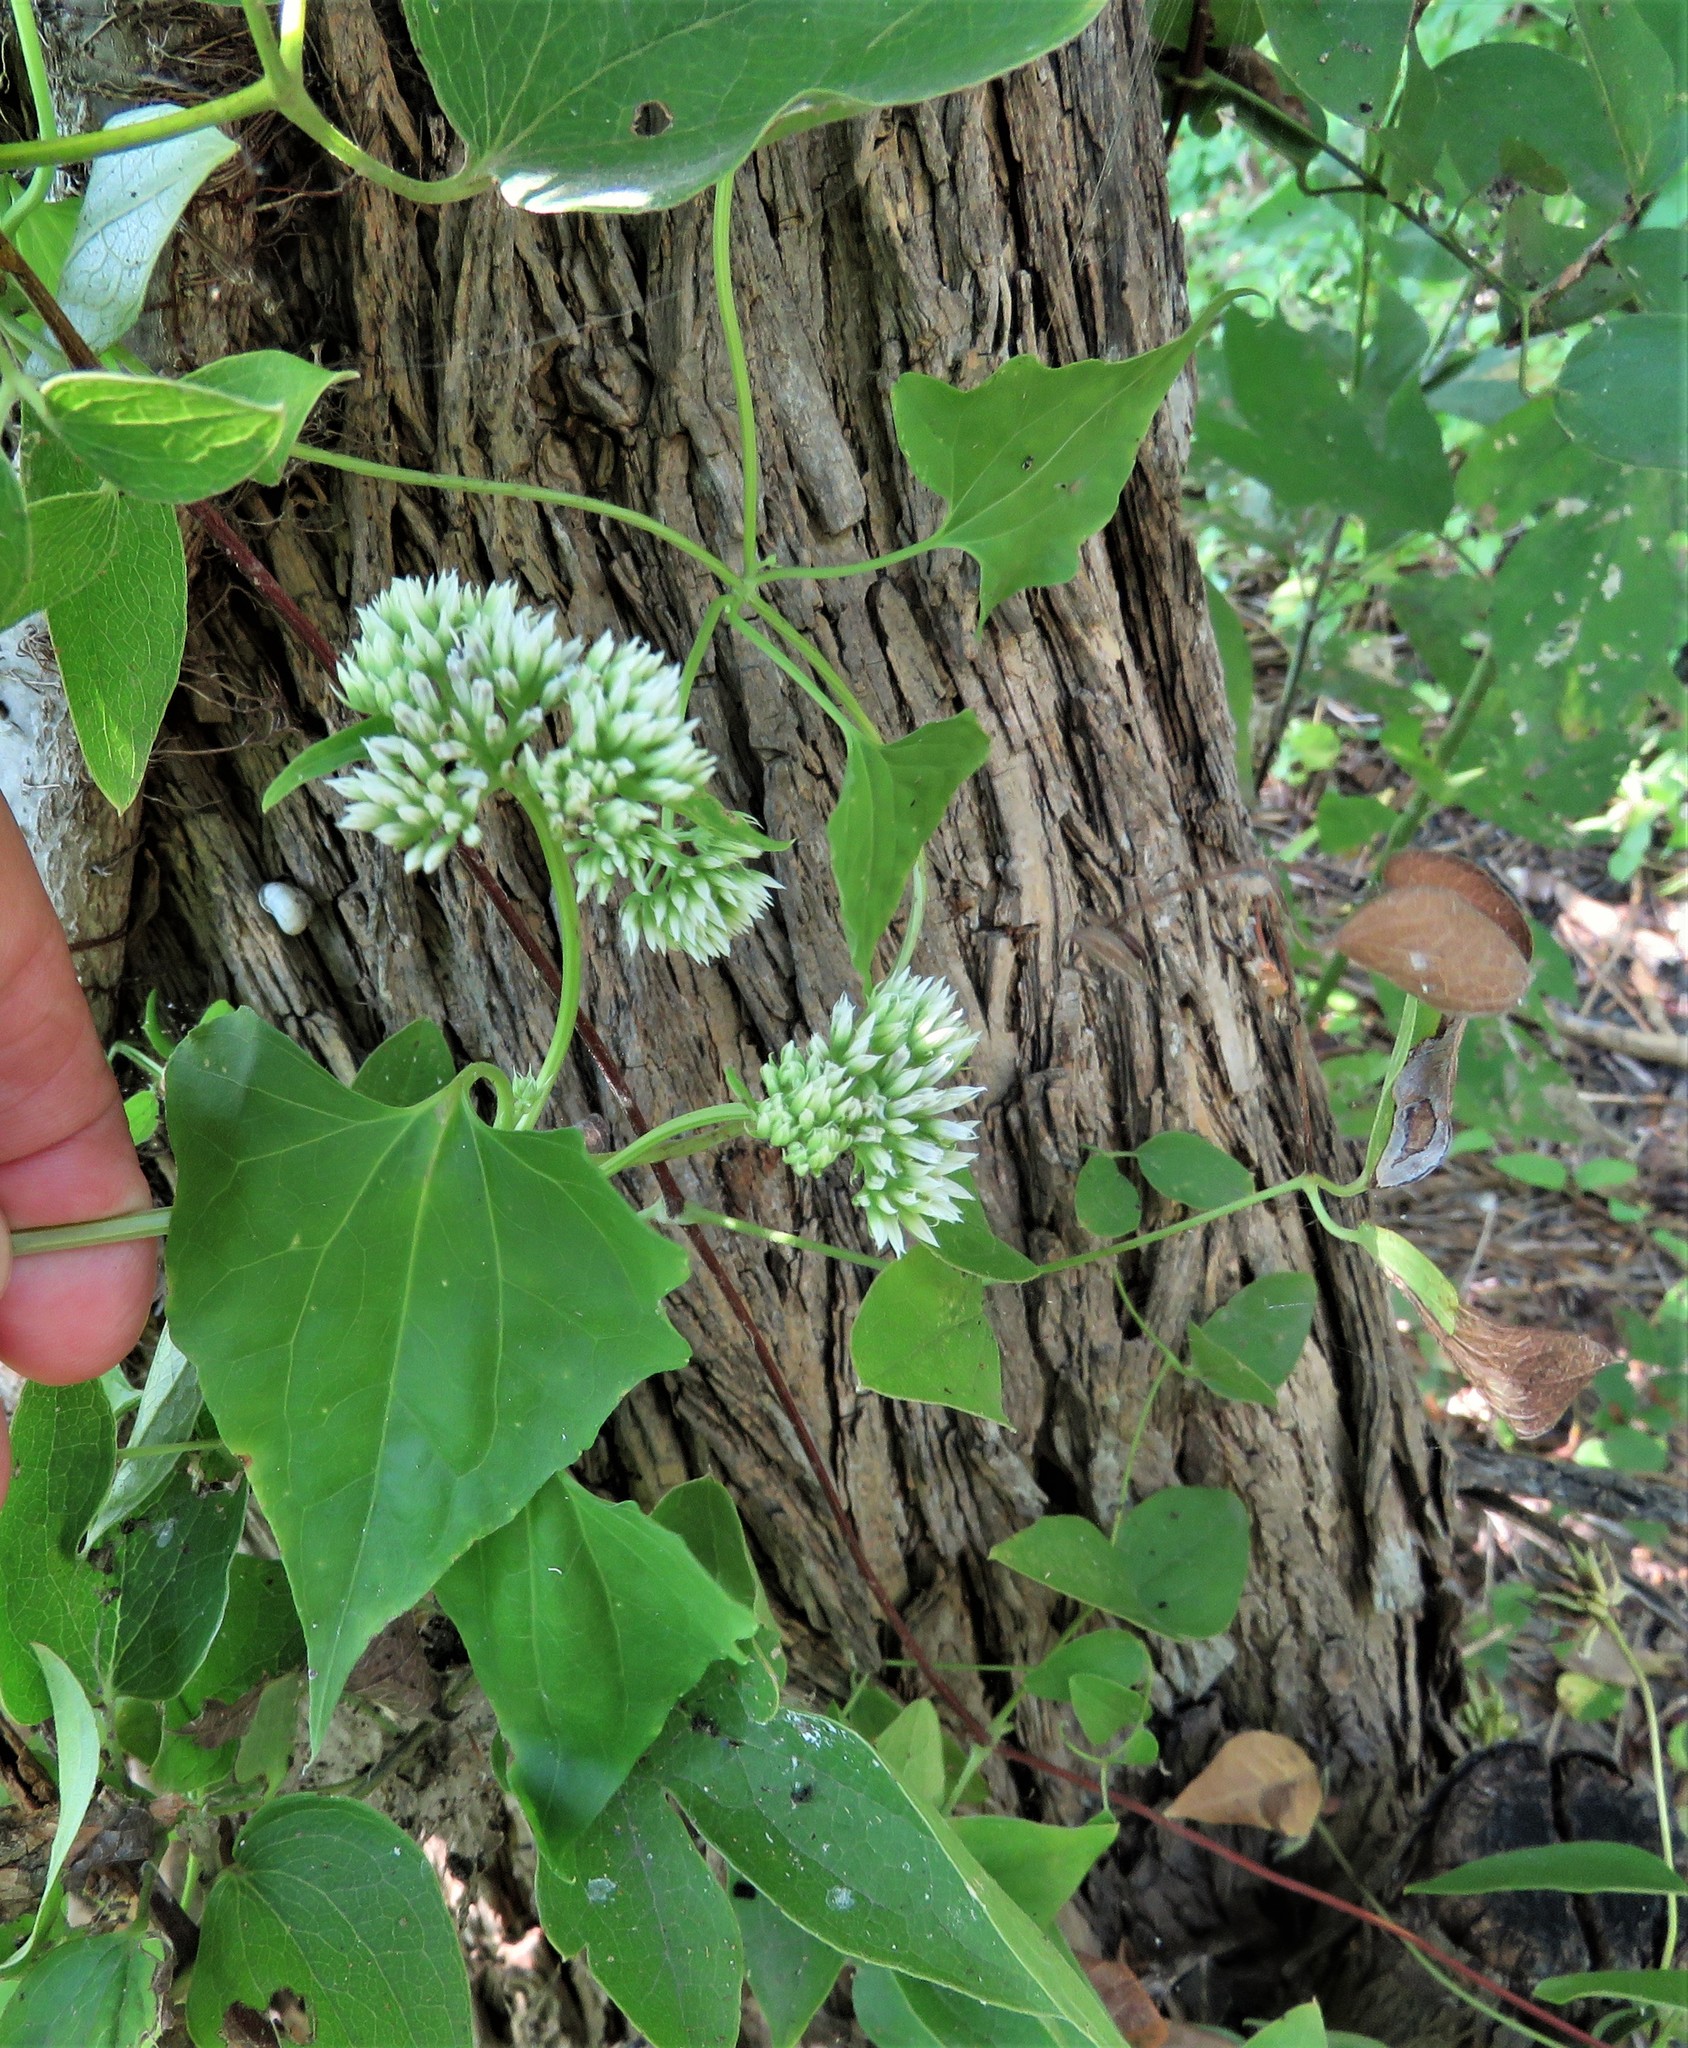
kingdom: Plantae
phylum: Tracheophyta
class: Magnoliopsida
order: Asterales
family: Asteraceae
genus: Mikania
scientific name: Mikania scandens
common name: Climbing hempvine
